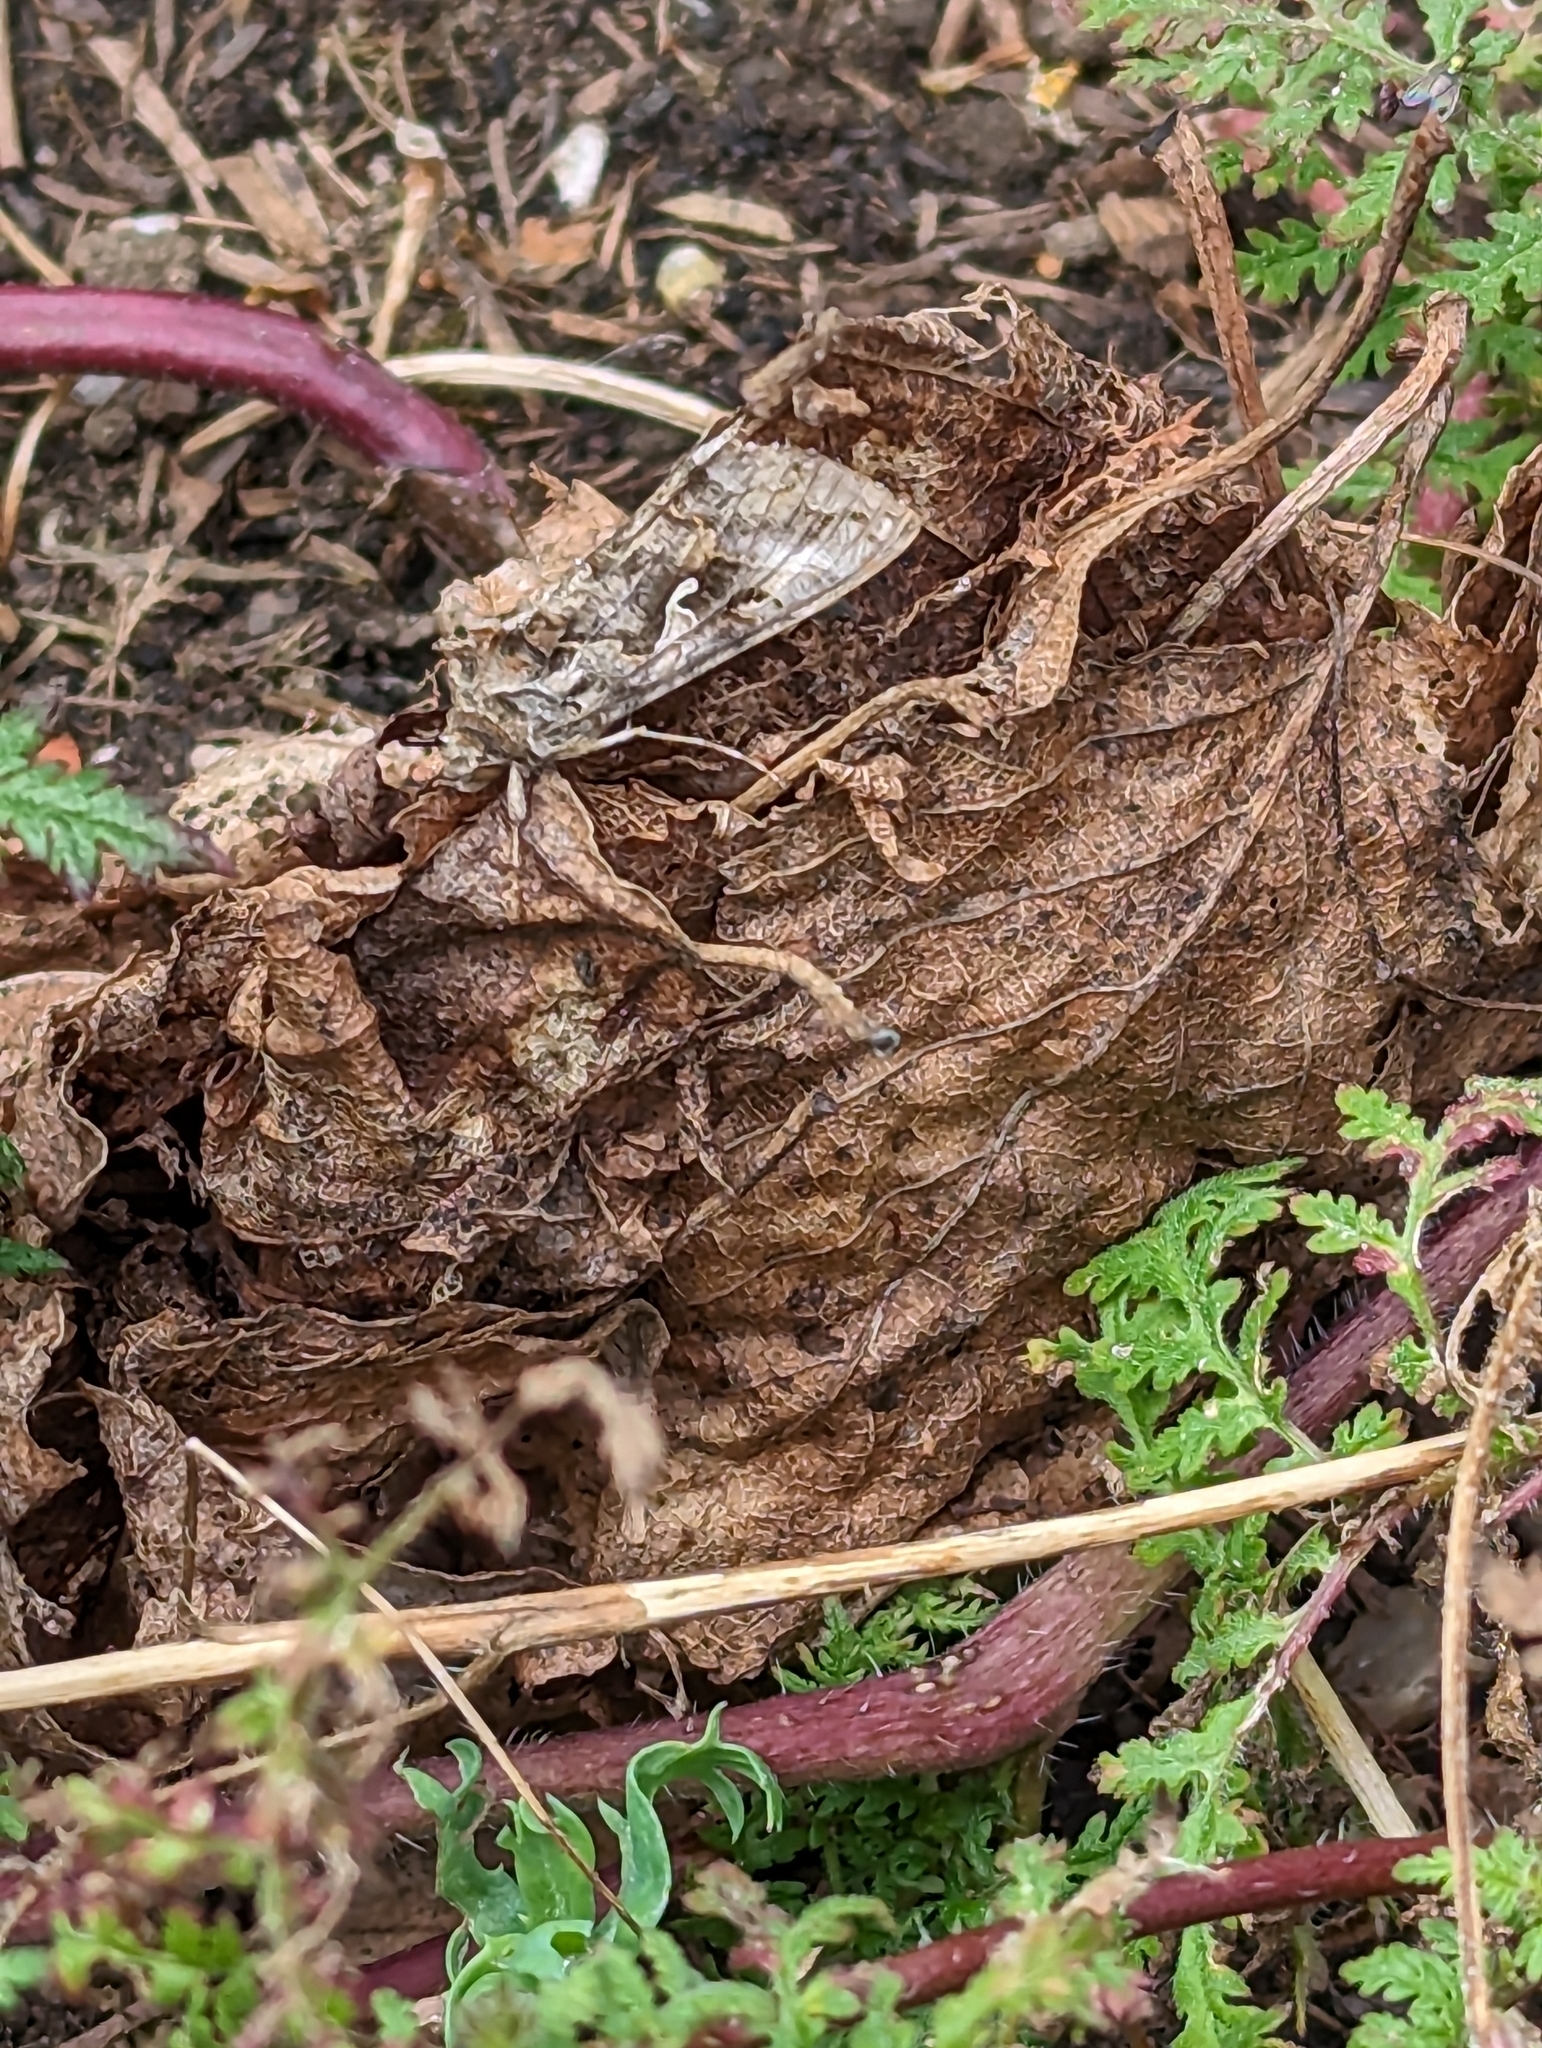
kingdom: Animalia
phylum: Arthropoda
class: Insecta
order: Lepidoptera
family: Noctuidae
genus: Autographa
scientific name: Autographa gamma
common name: Silver y
